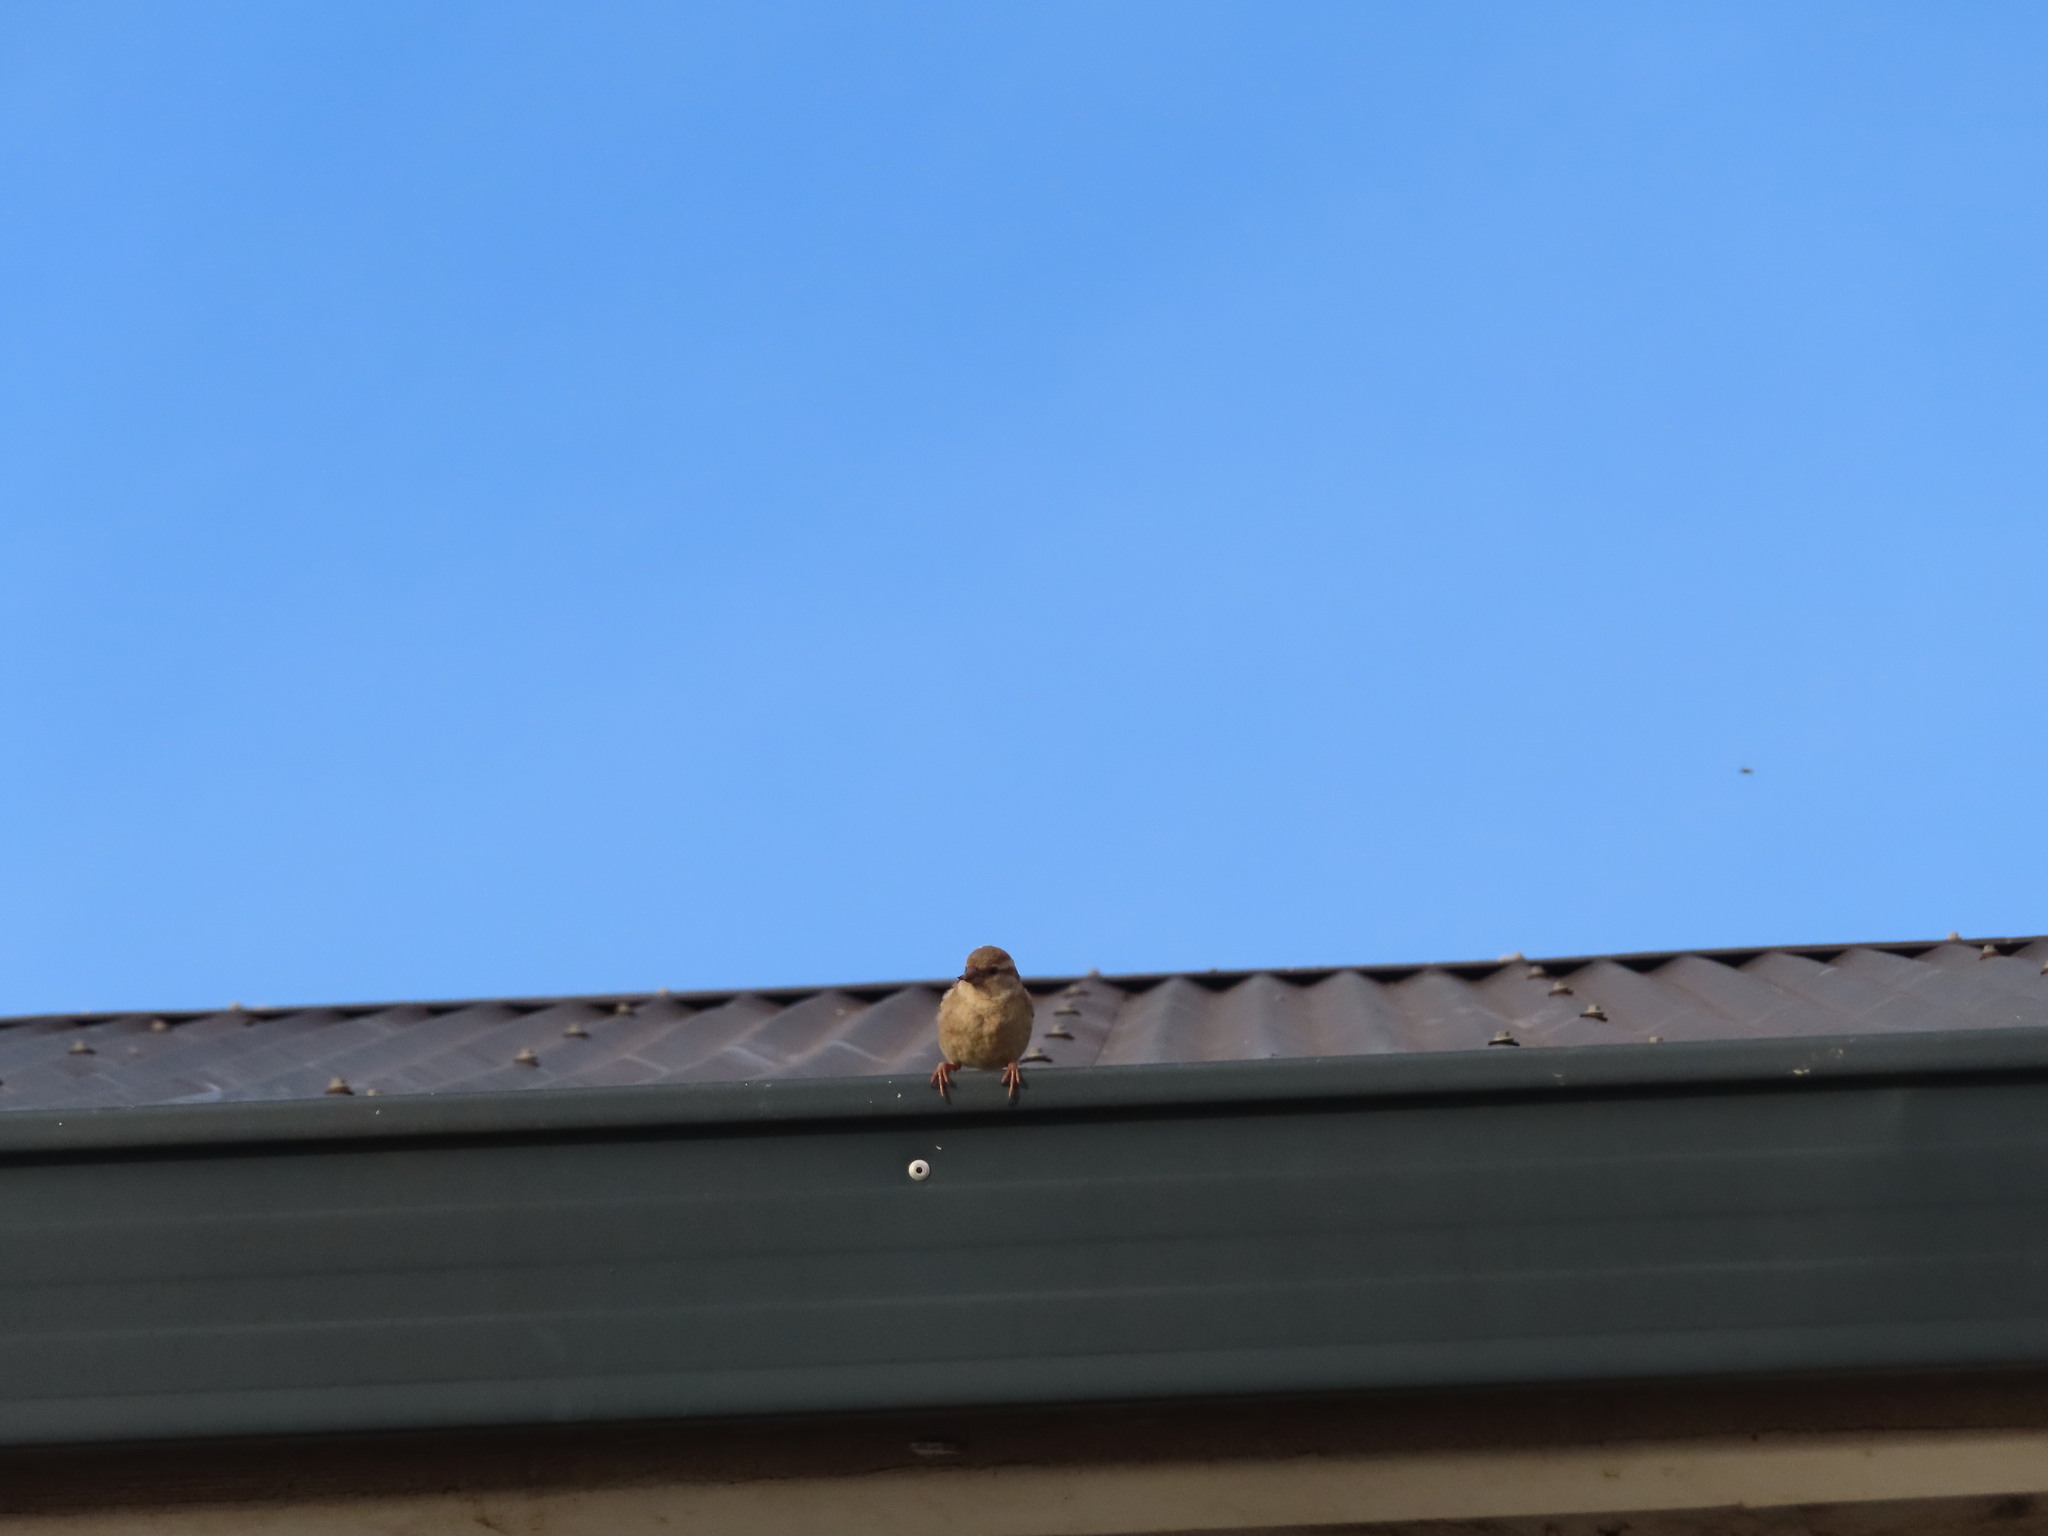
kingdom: Animalia
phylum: Chordata
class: Aves
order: Passeriformes
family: Passeridae
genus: Passer
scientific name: Passer domesticus
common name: House sparrow
